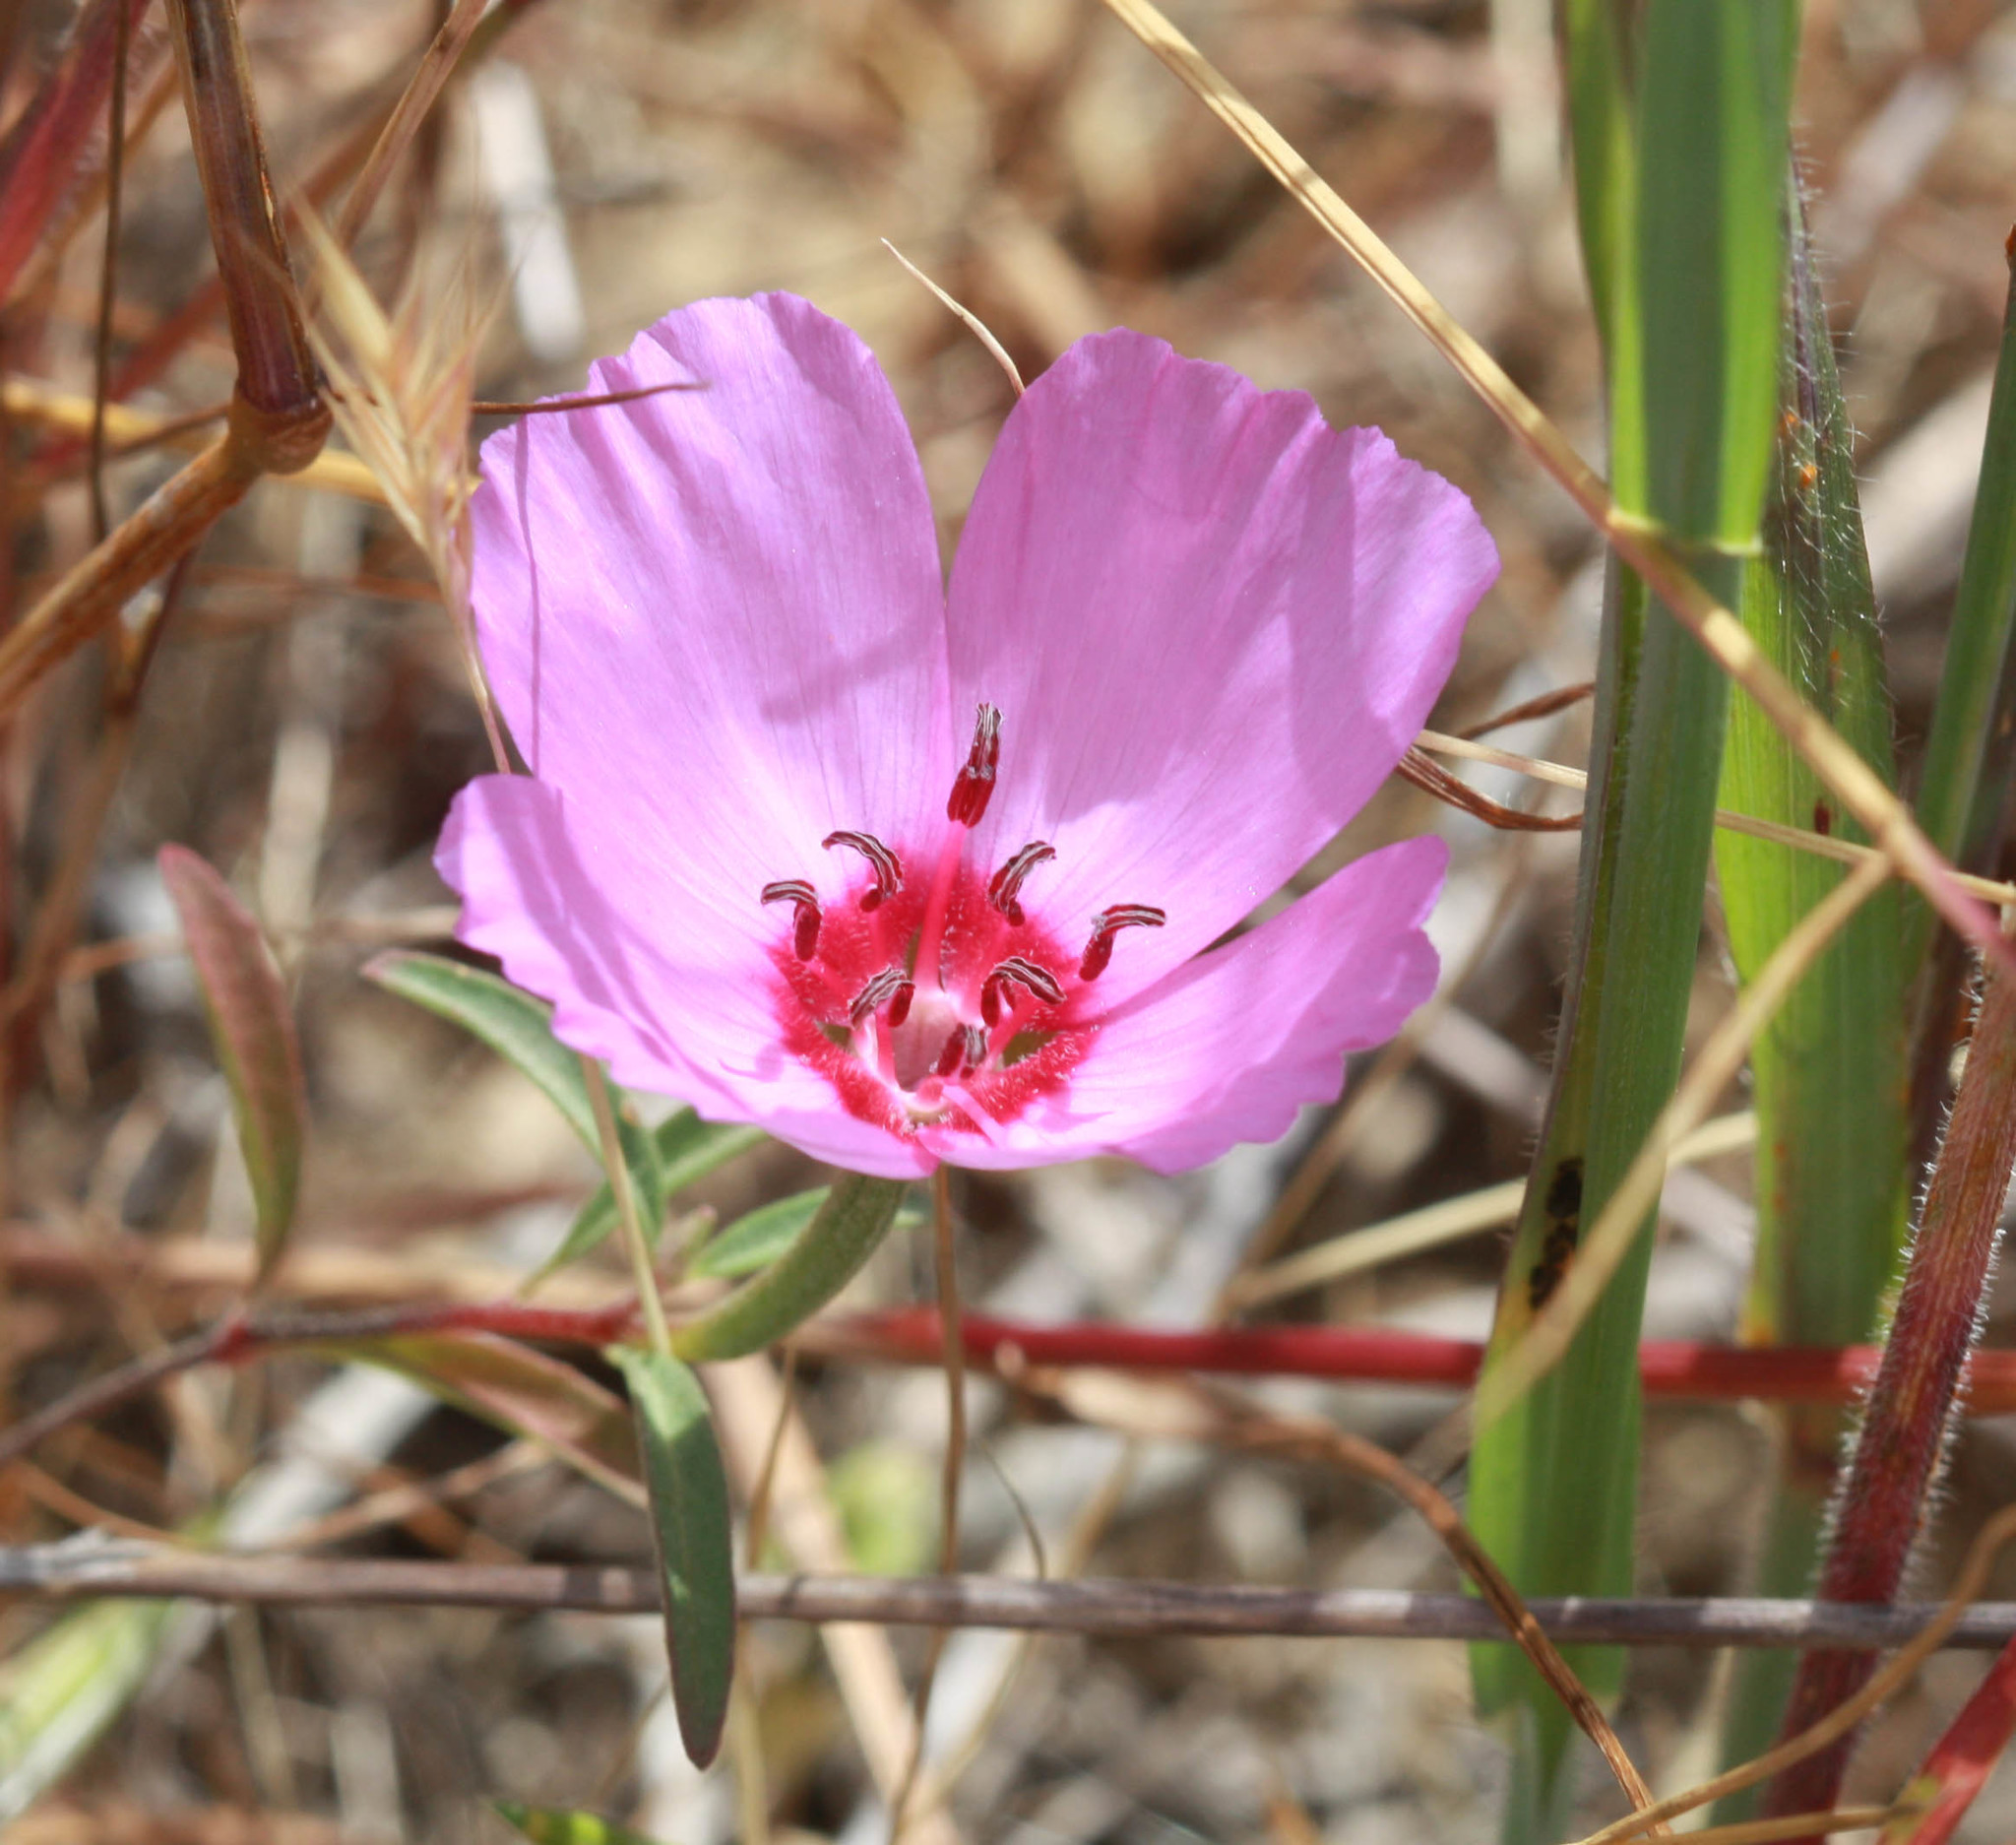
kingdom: Plantae
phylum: Tracheophyta
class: Magnoliopsida
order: Myrtales
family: Onagraceae
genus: Clarkia
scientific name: Clarkia rubicunda
